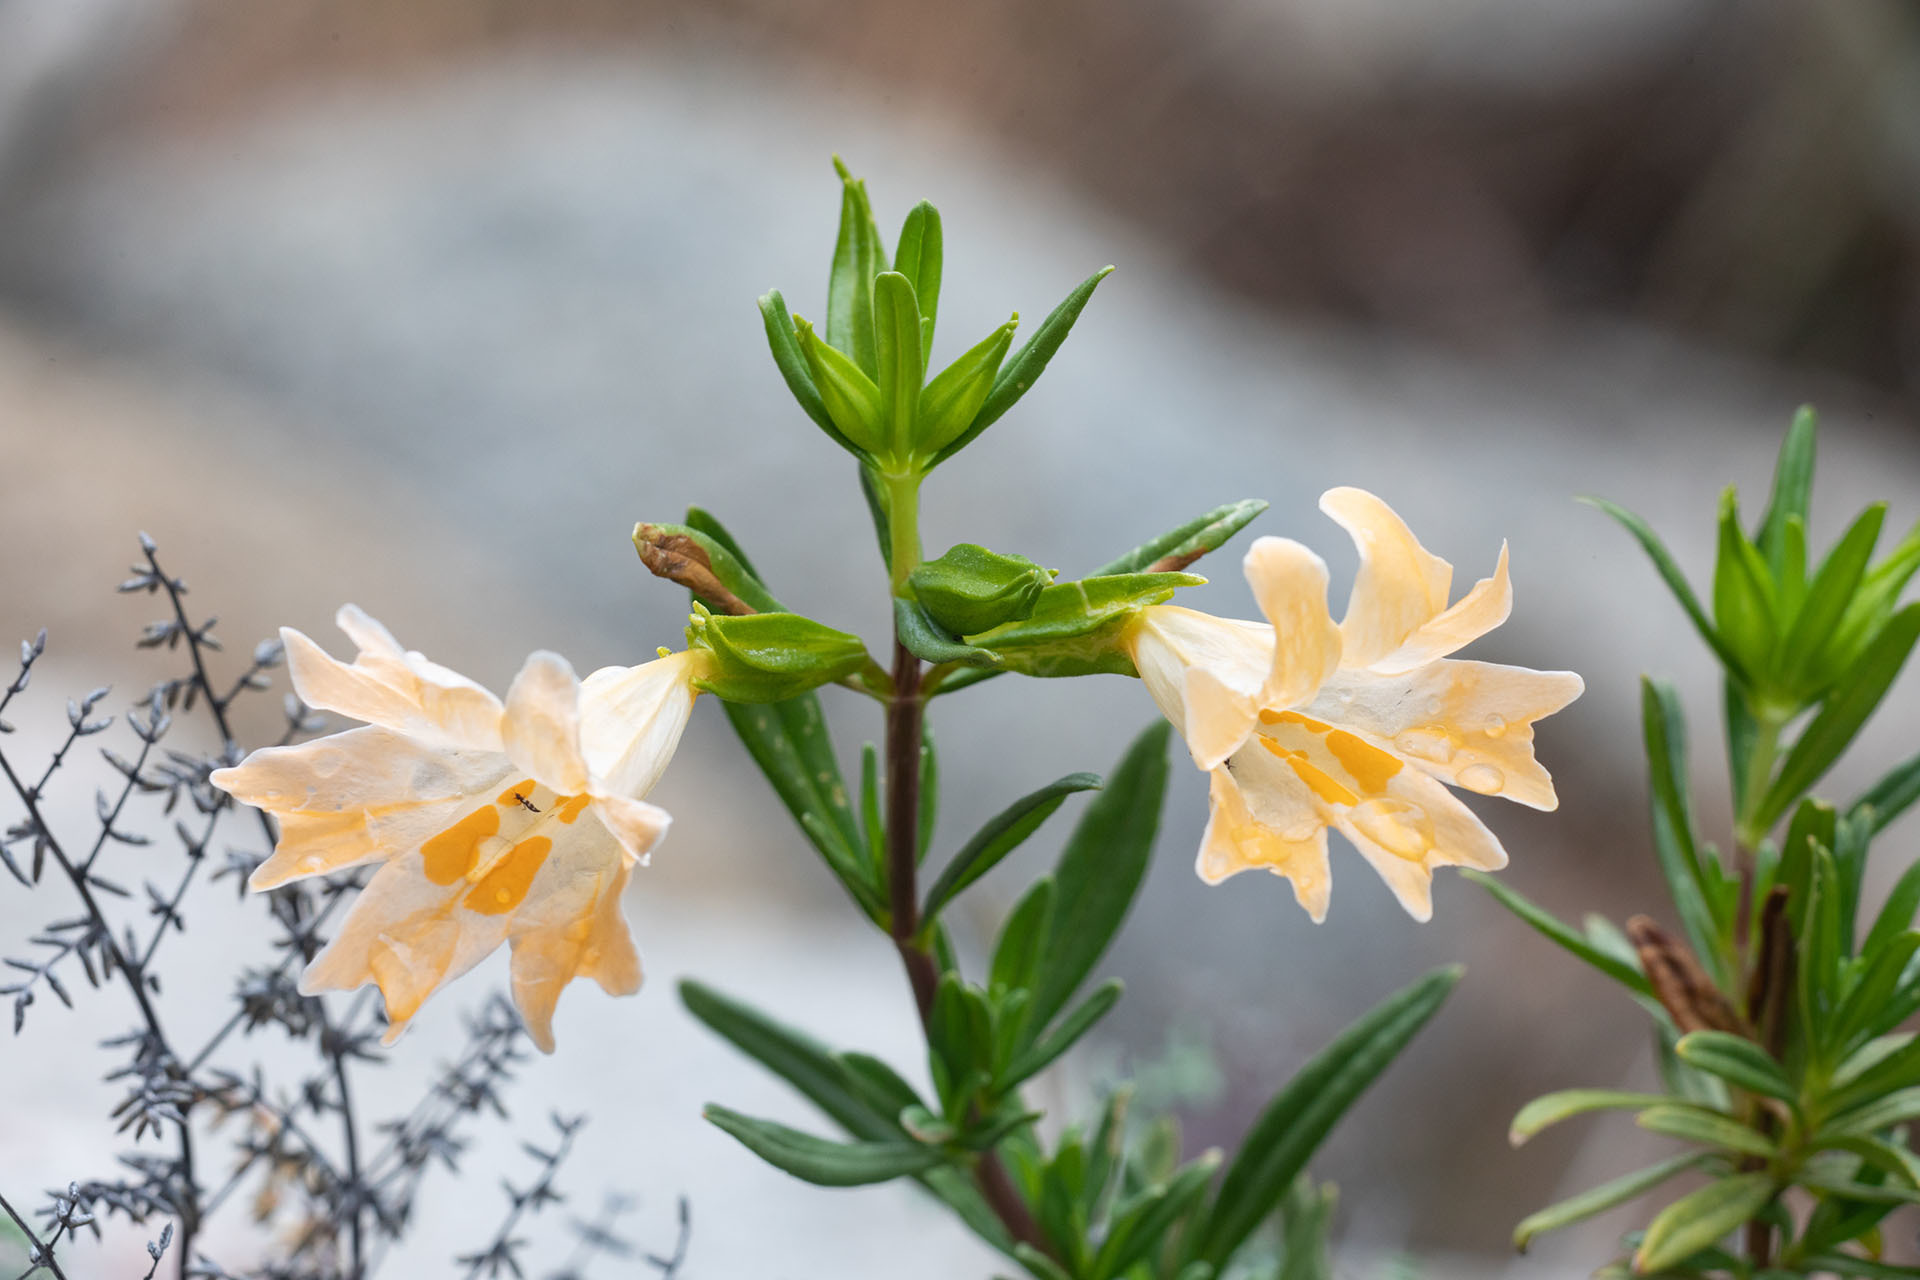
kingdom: Plantae
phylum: Tracheophyta
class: Magnoliopsida
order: Lamiales
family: Phrymaceae
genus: Diplacus
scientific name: Diplacus linearis
